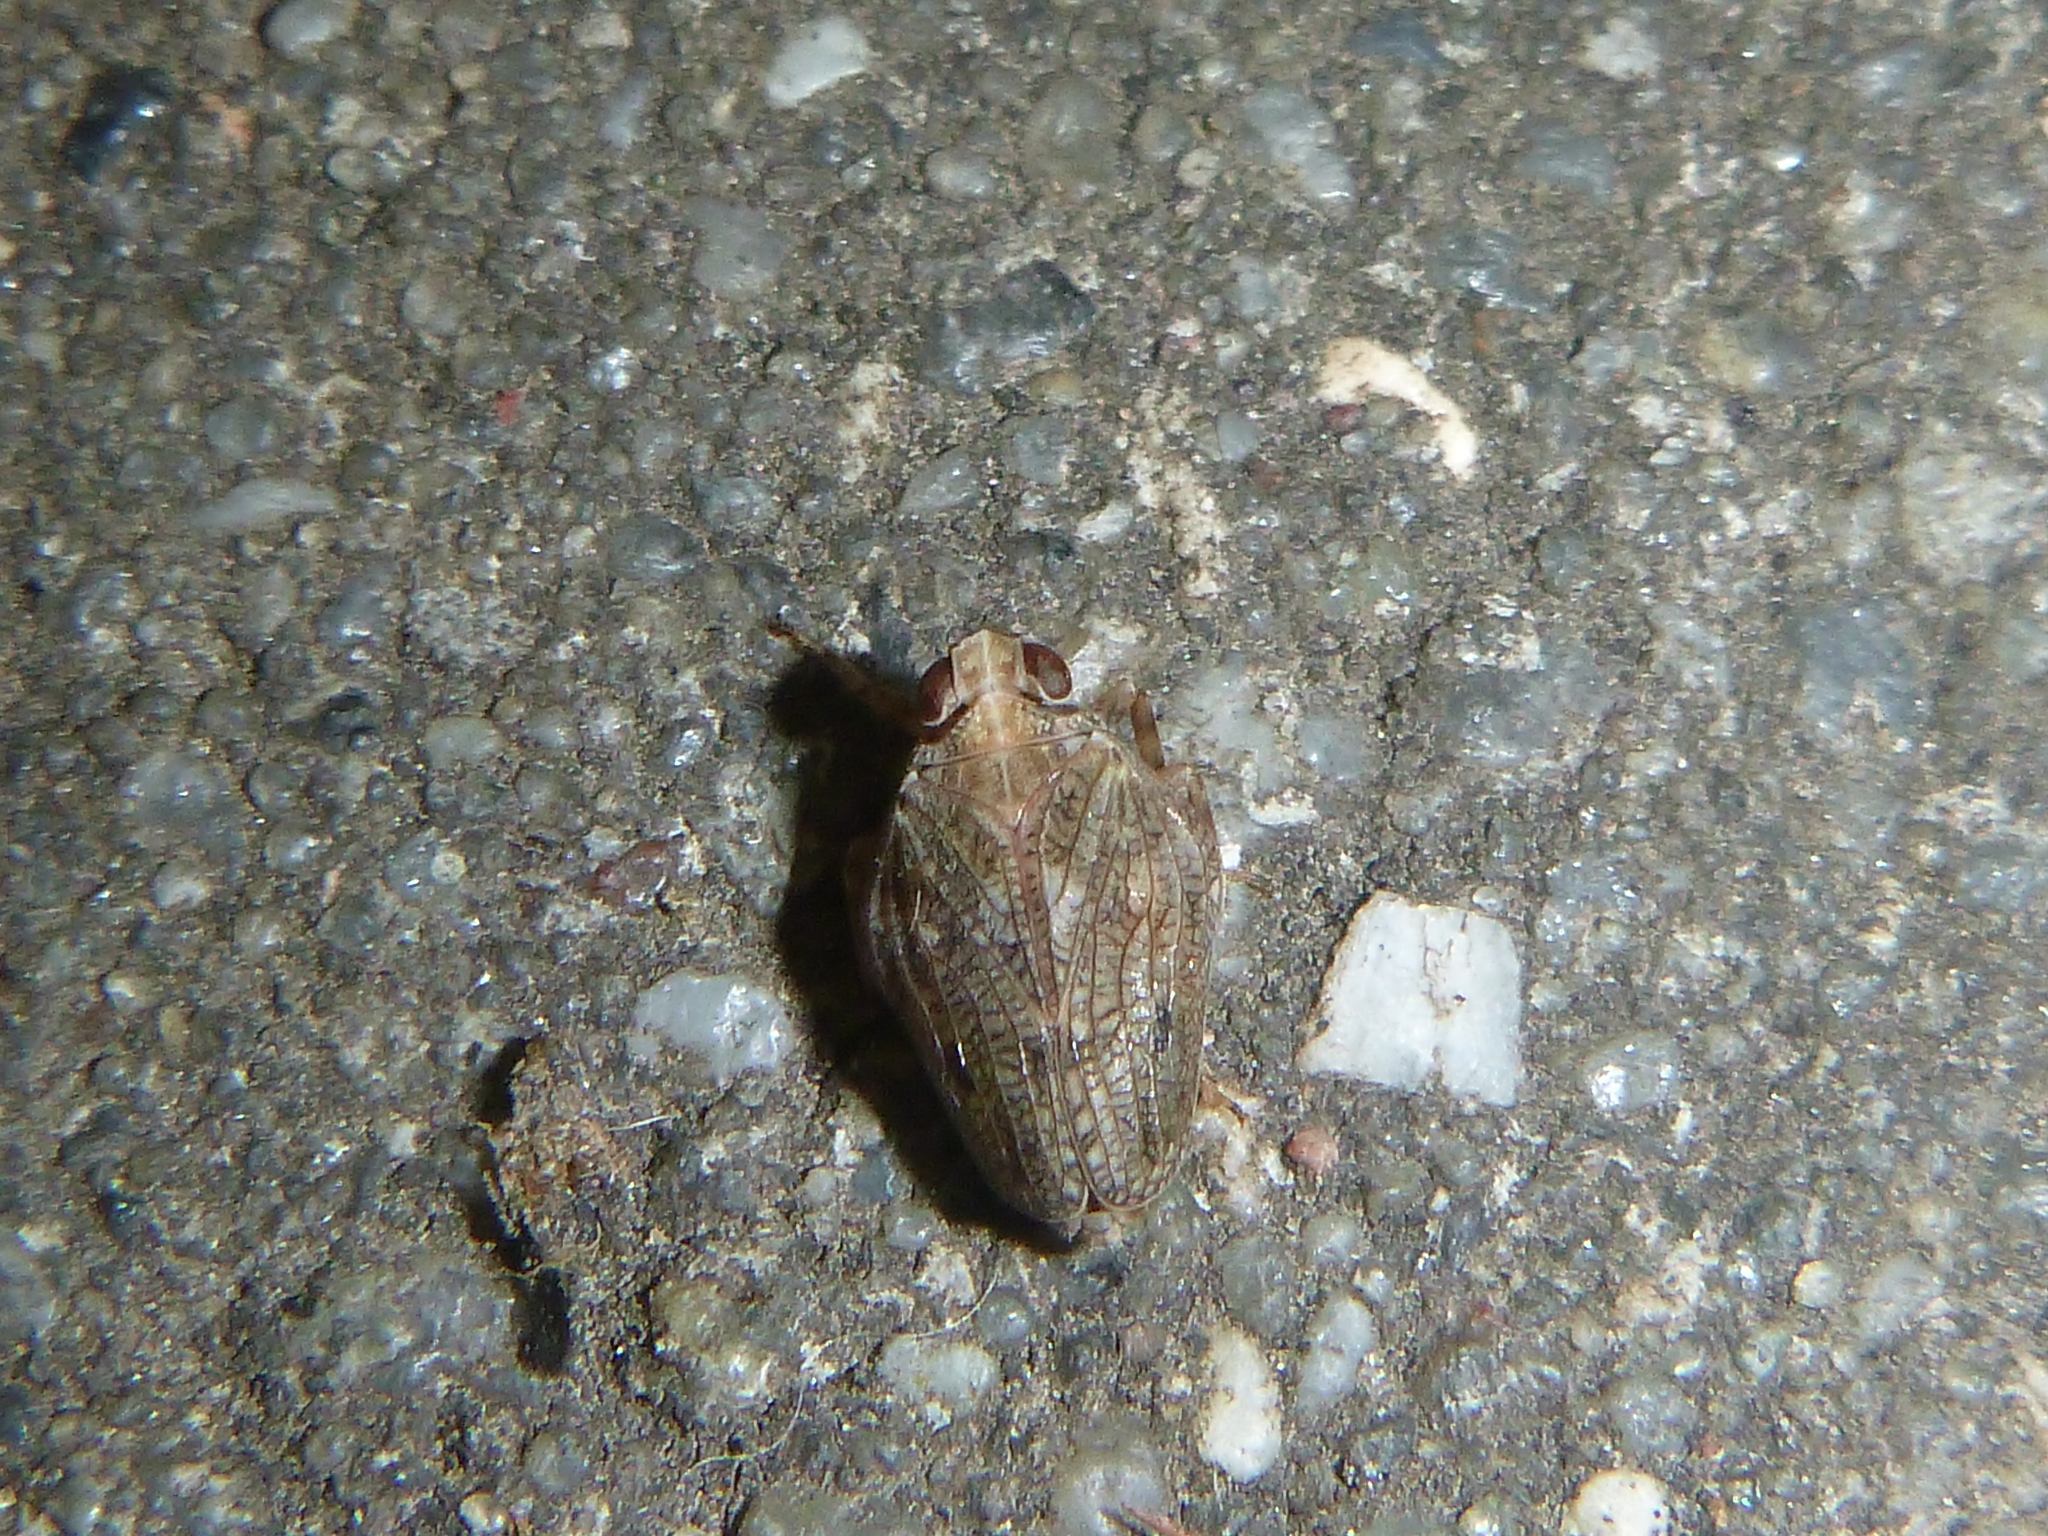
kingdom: Animalia
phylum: Arthropoda
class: Insecta
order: Hemiptera
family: Issidae
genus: Issus
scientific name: Issus coleoptratus
